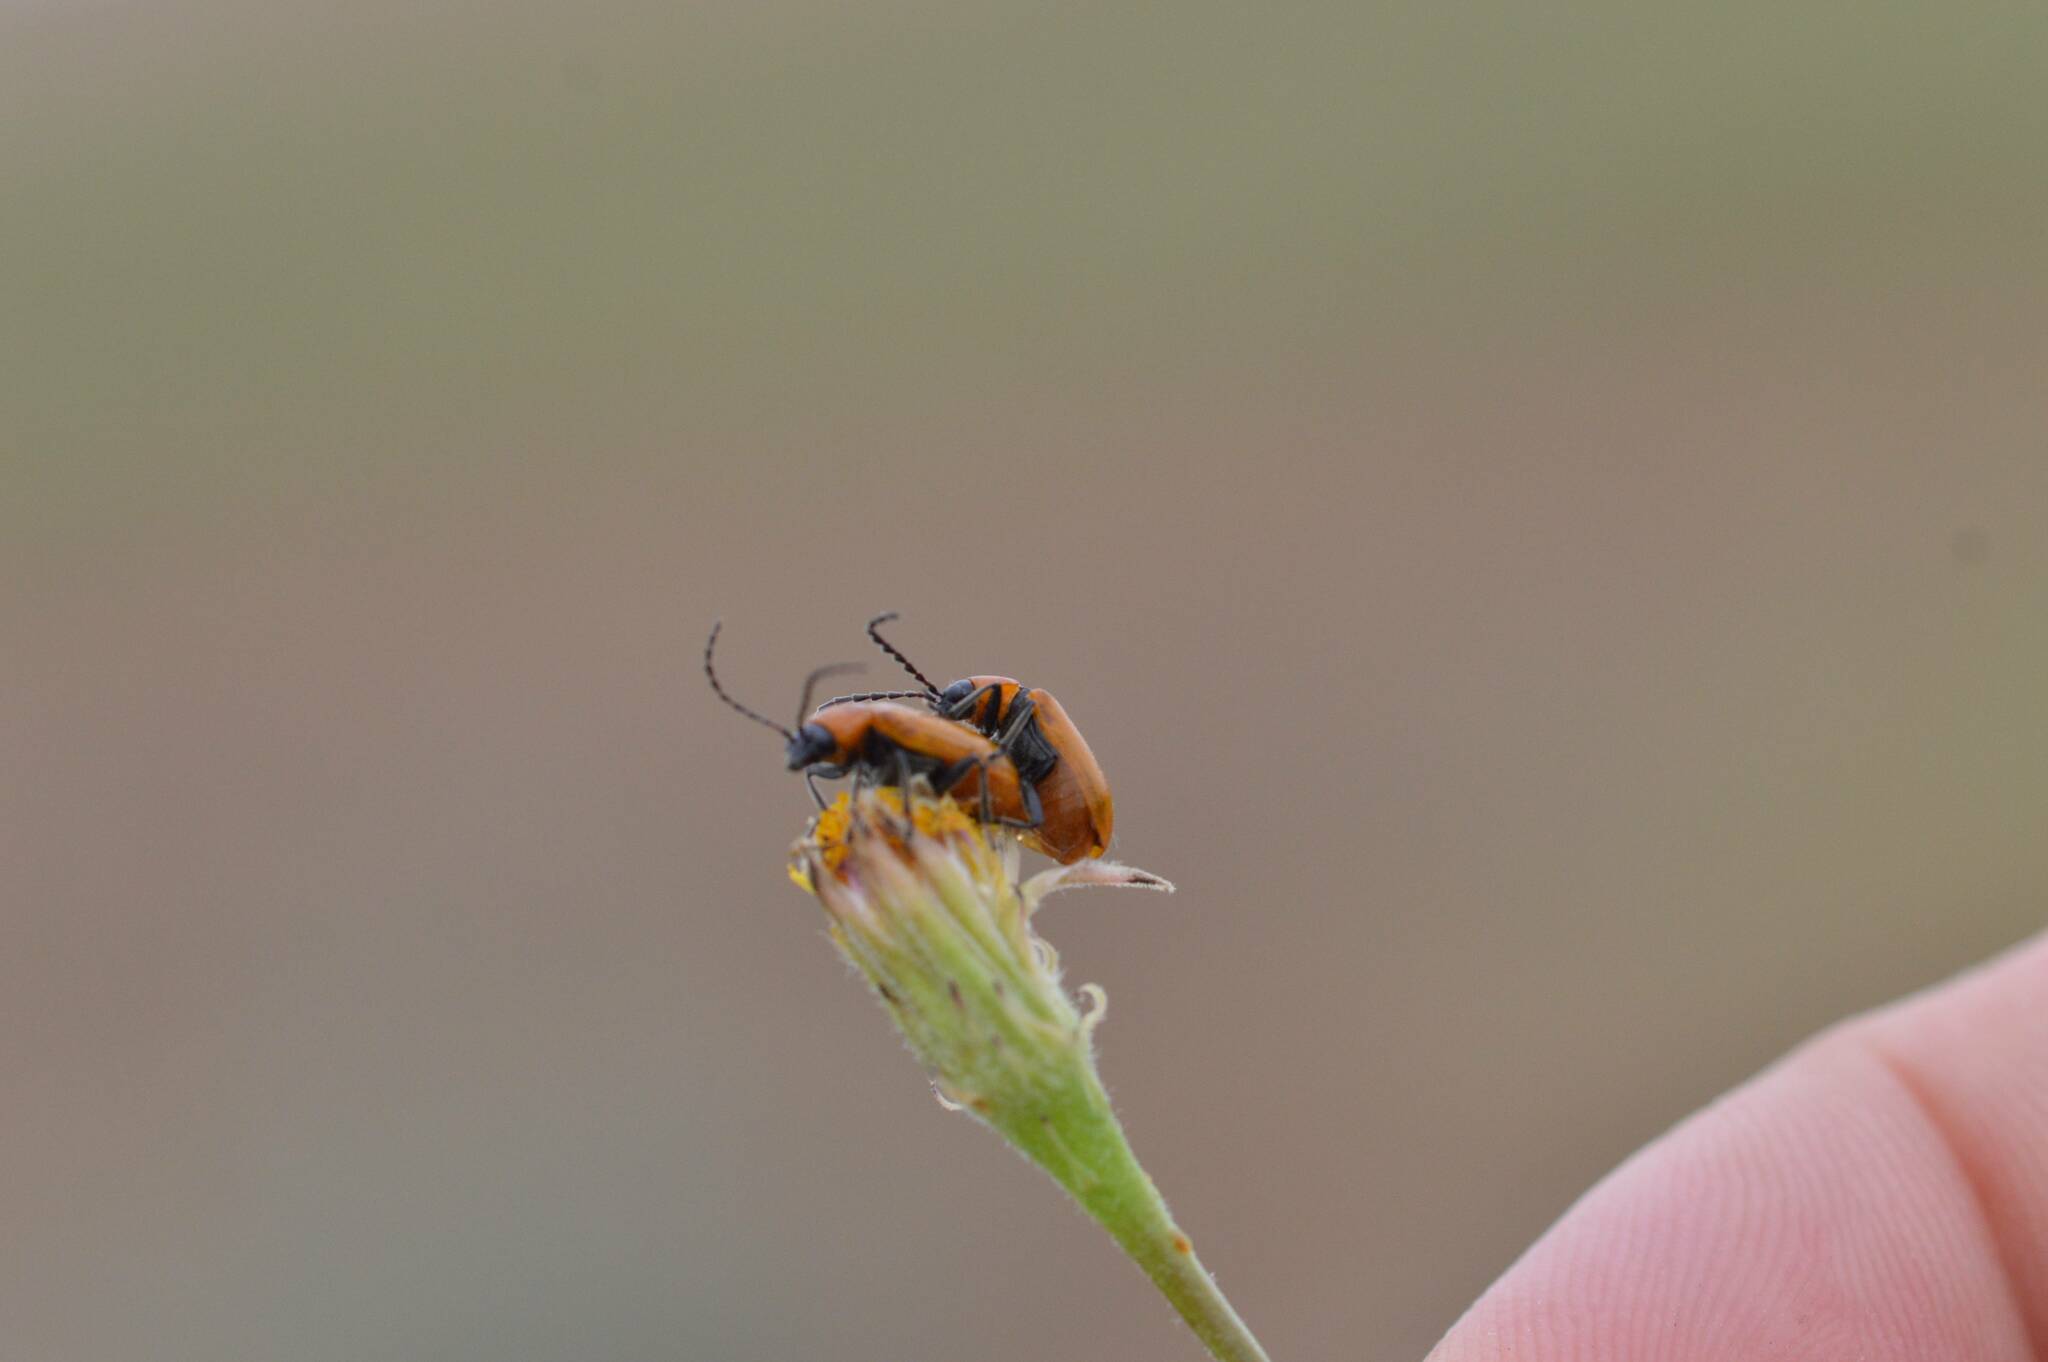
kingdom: Animalia
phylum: Arthropoda
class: Insecta
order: Coleoptera
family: Chrysomelidae
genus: Exosoma
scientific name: Exosoma lusitanicum
